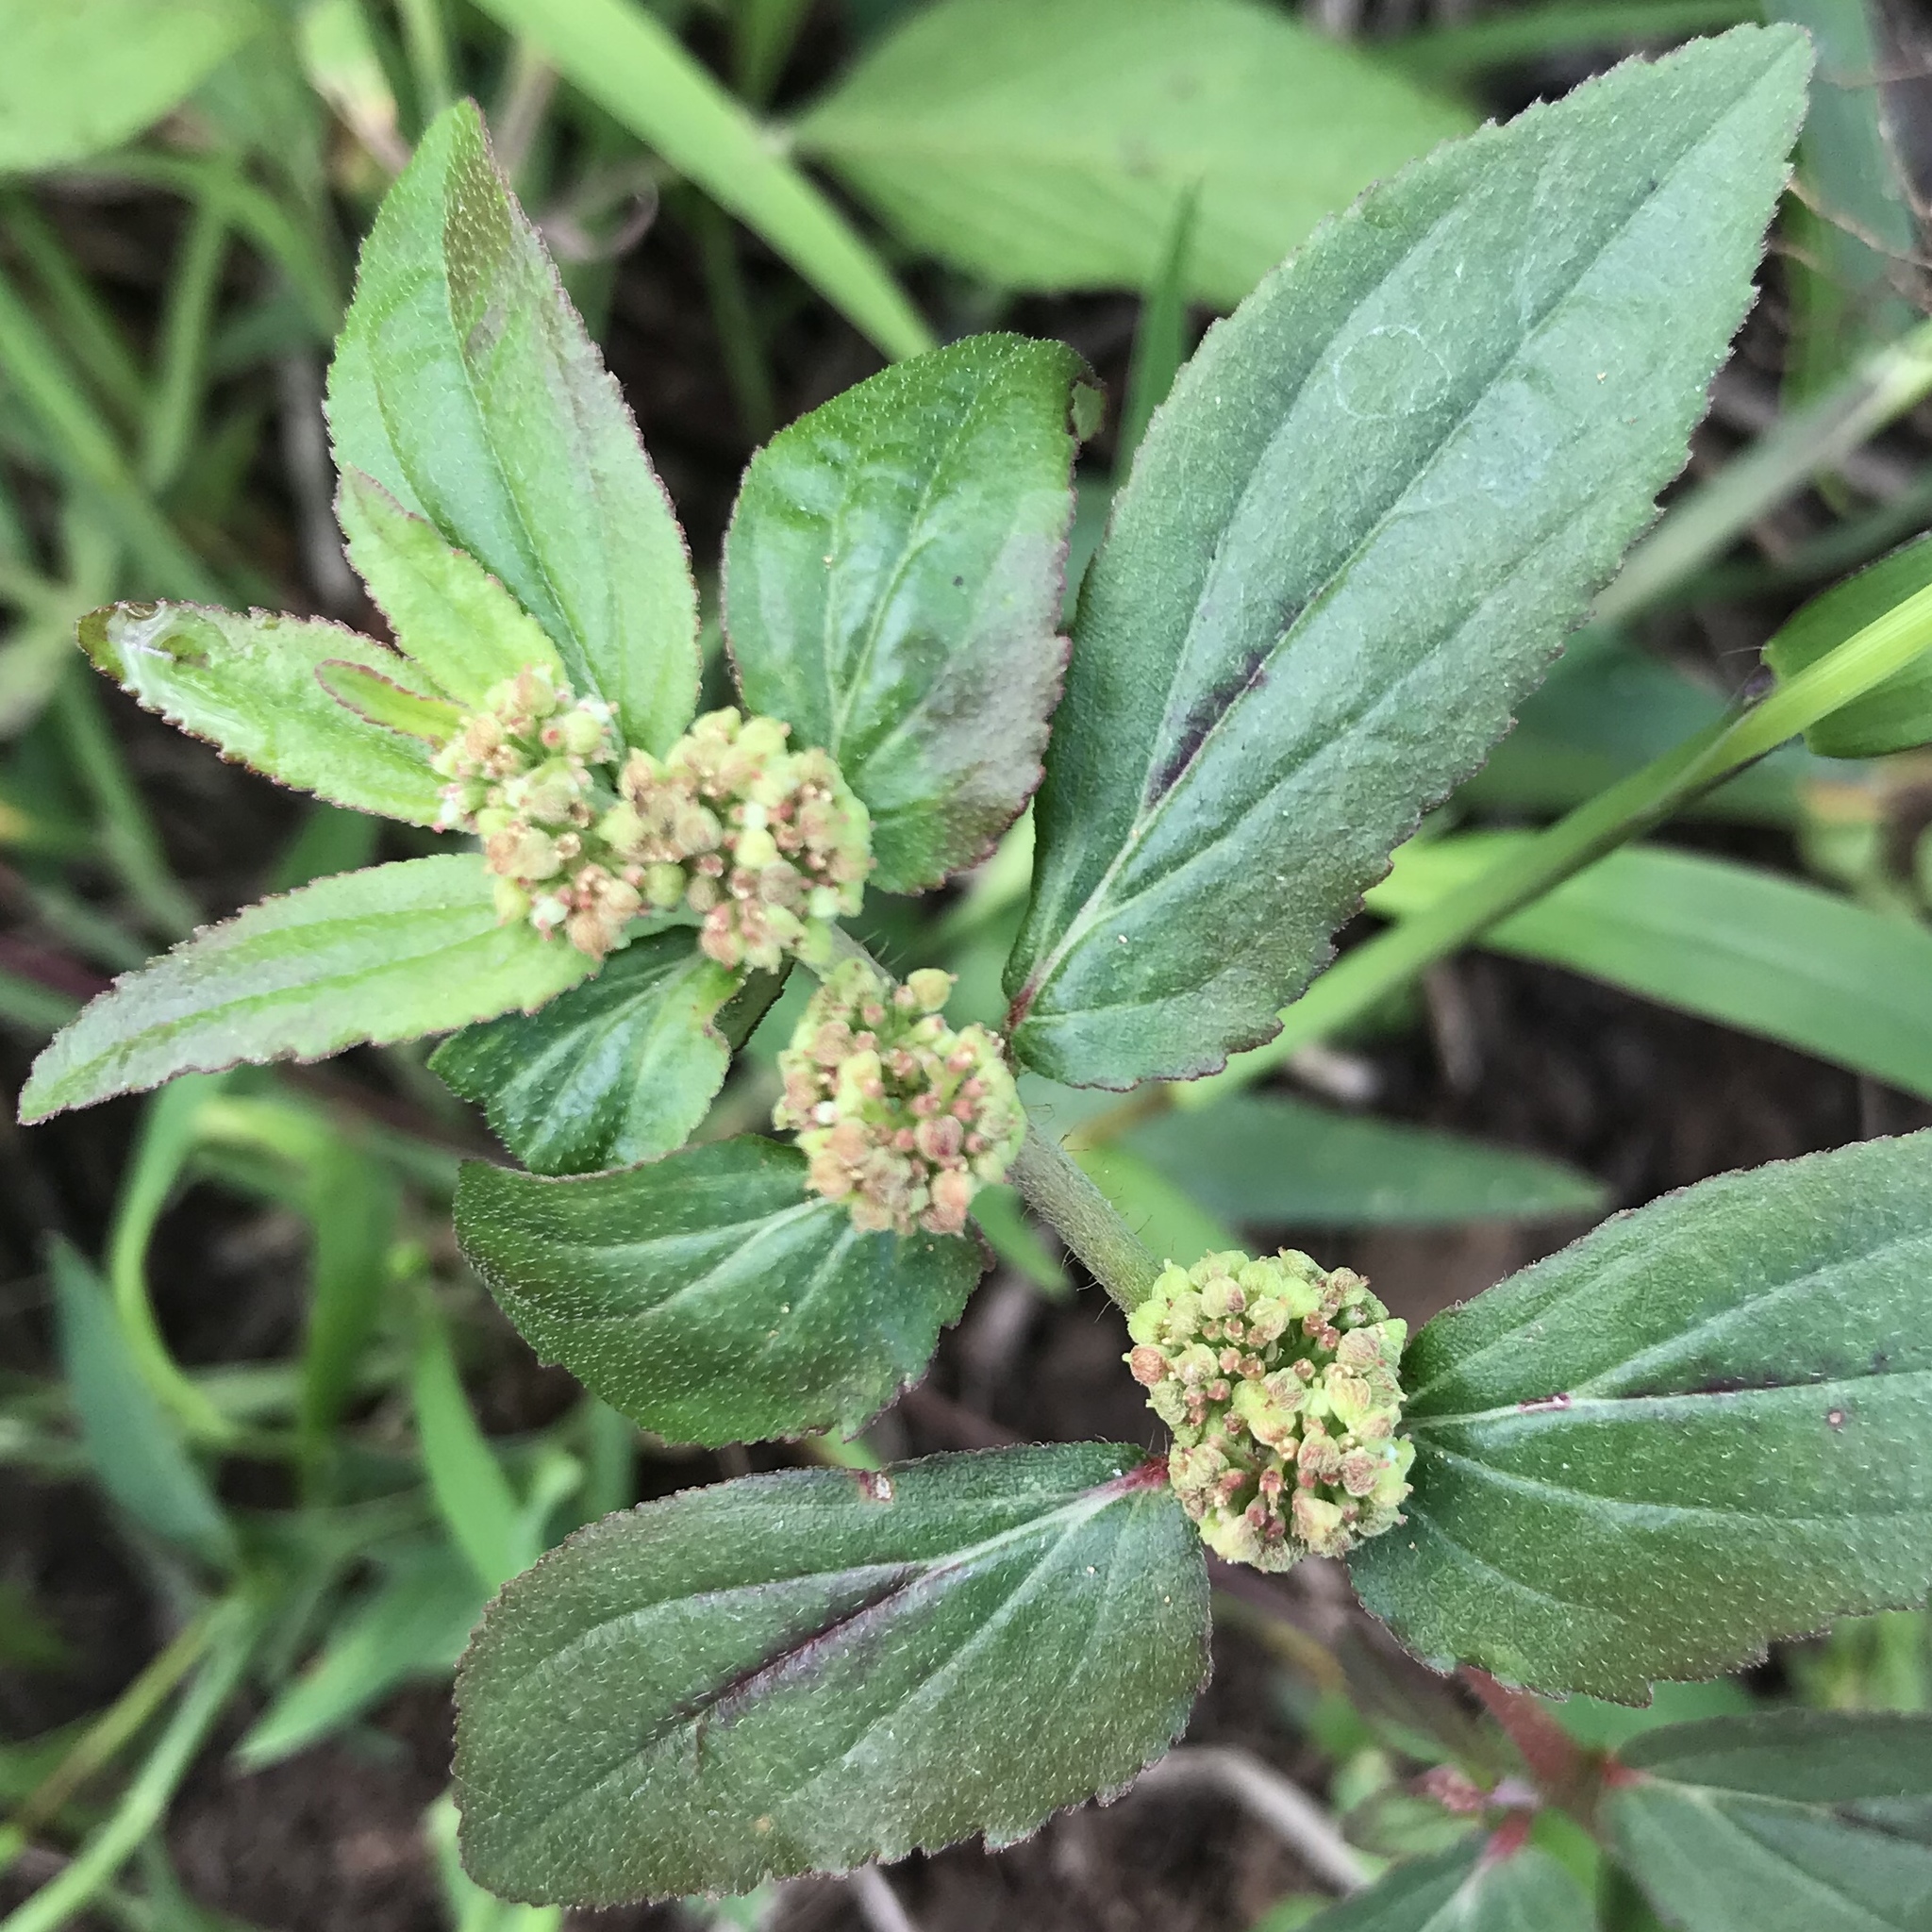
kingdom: Plantae
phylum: Tracheophyta
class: Magnoliopsida
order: Malpighiales
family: Euphorbiaceae
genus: Euphorbia
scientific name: Euphorbia hirta
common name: Pillpod sandmat
